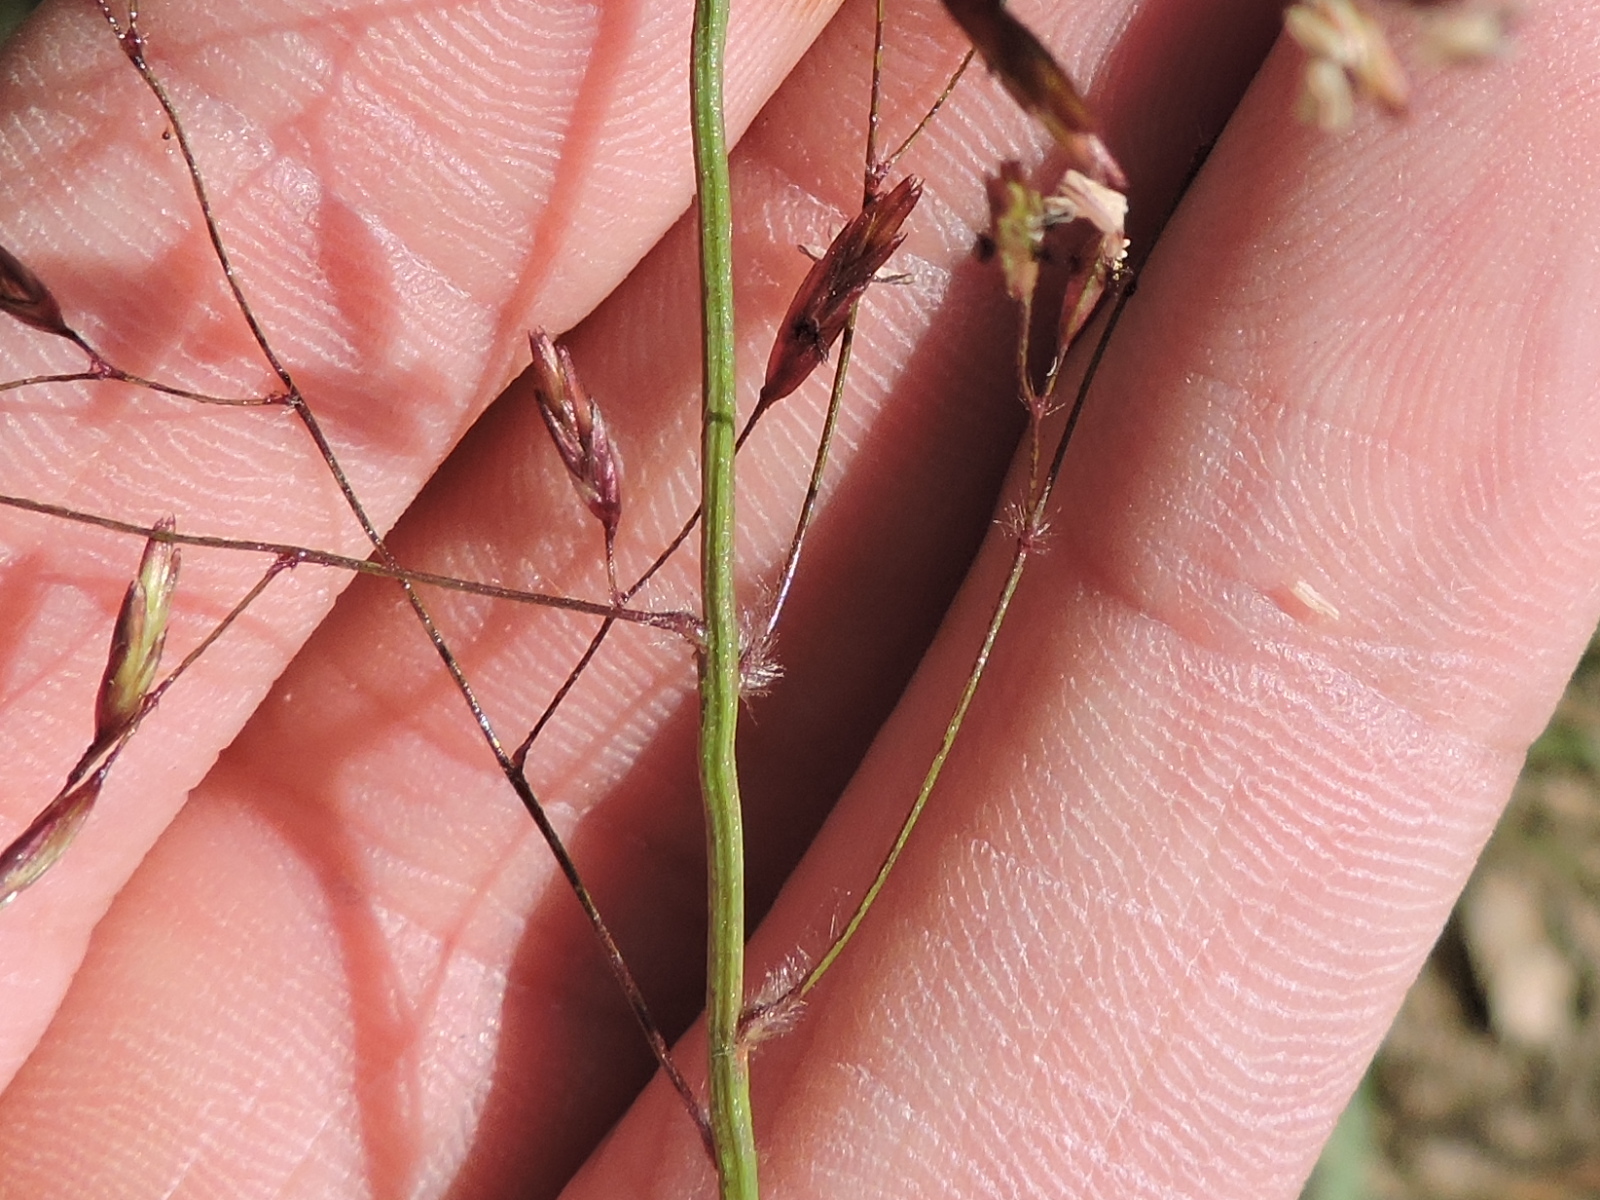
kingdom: Plantae
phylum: Tracheophyta
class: Liliopsida
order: Poales
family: Poaceae
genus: Tridens
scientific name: Tridens chapmanii
